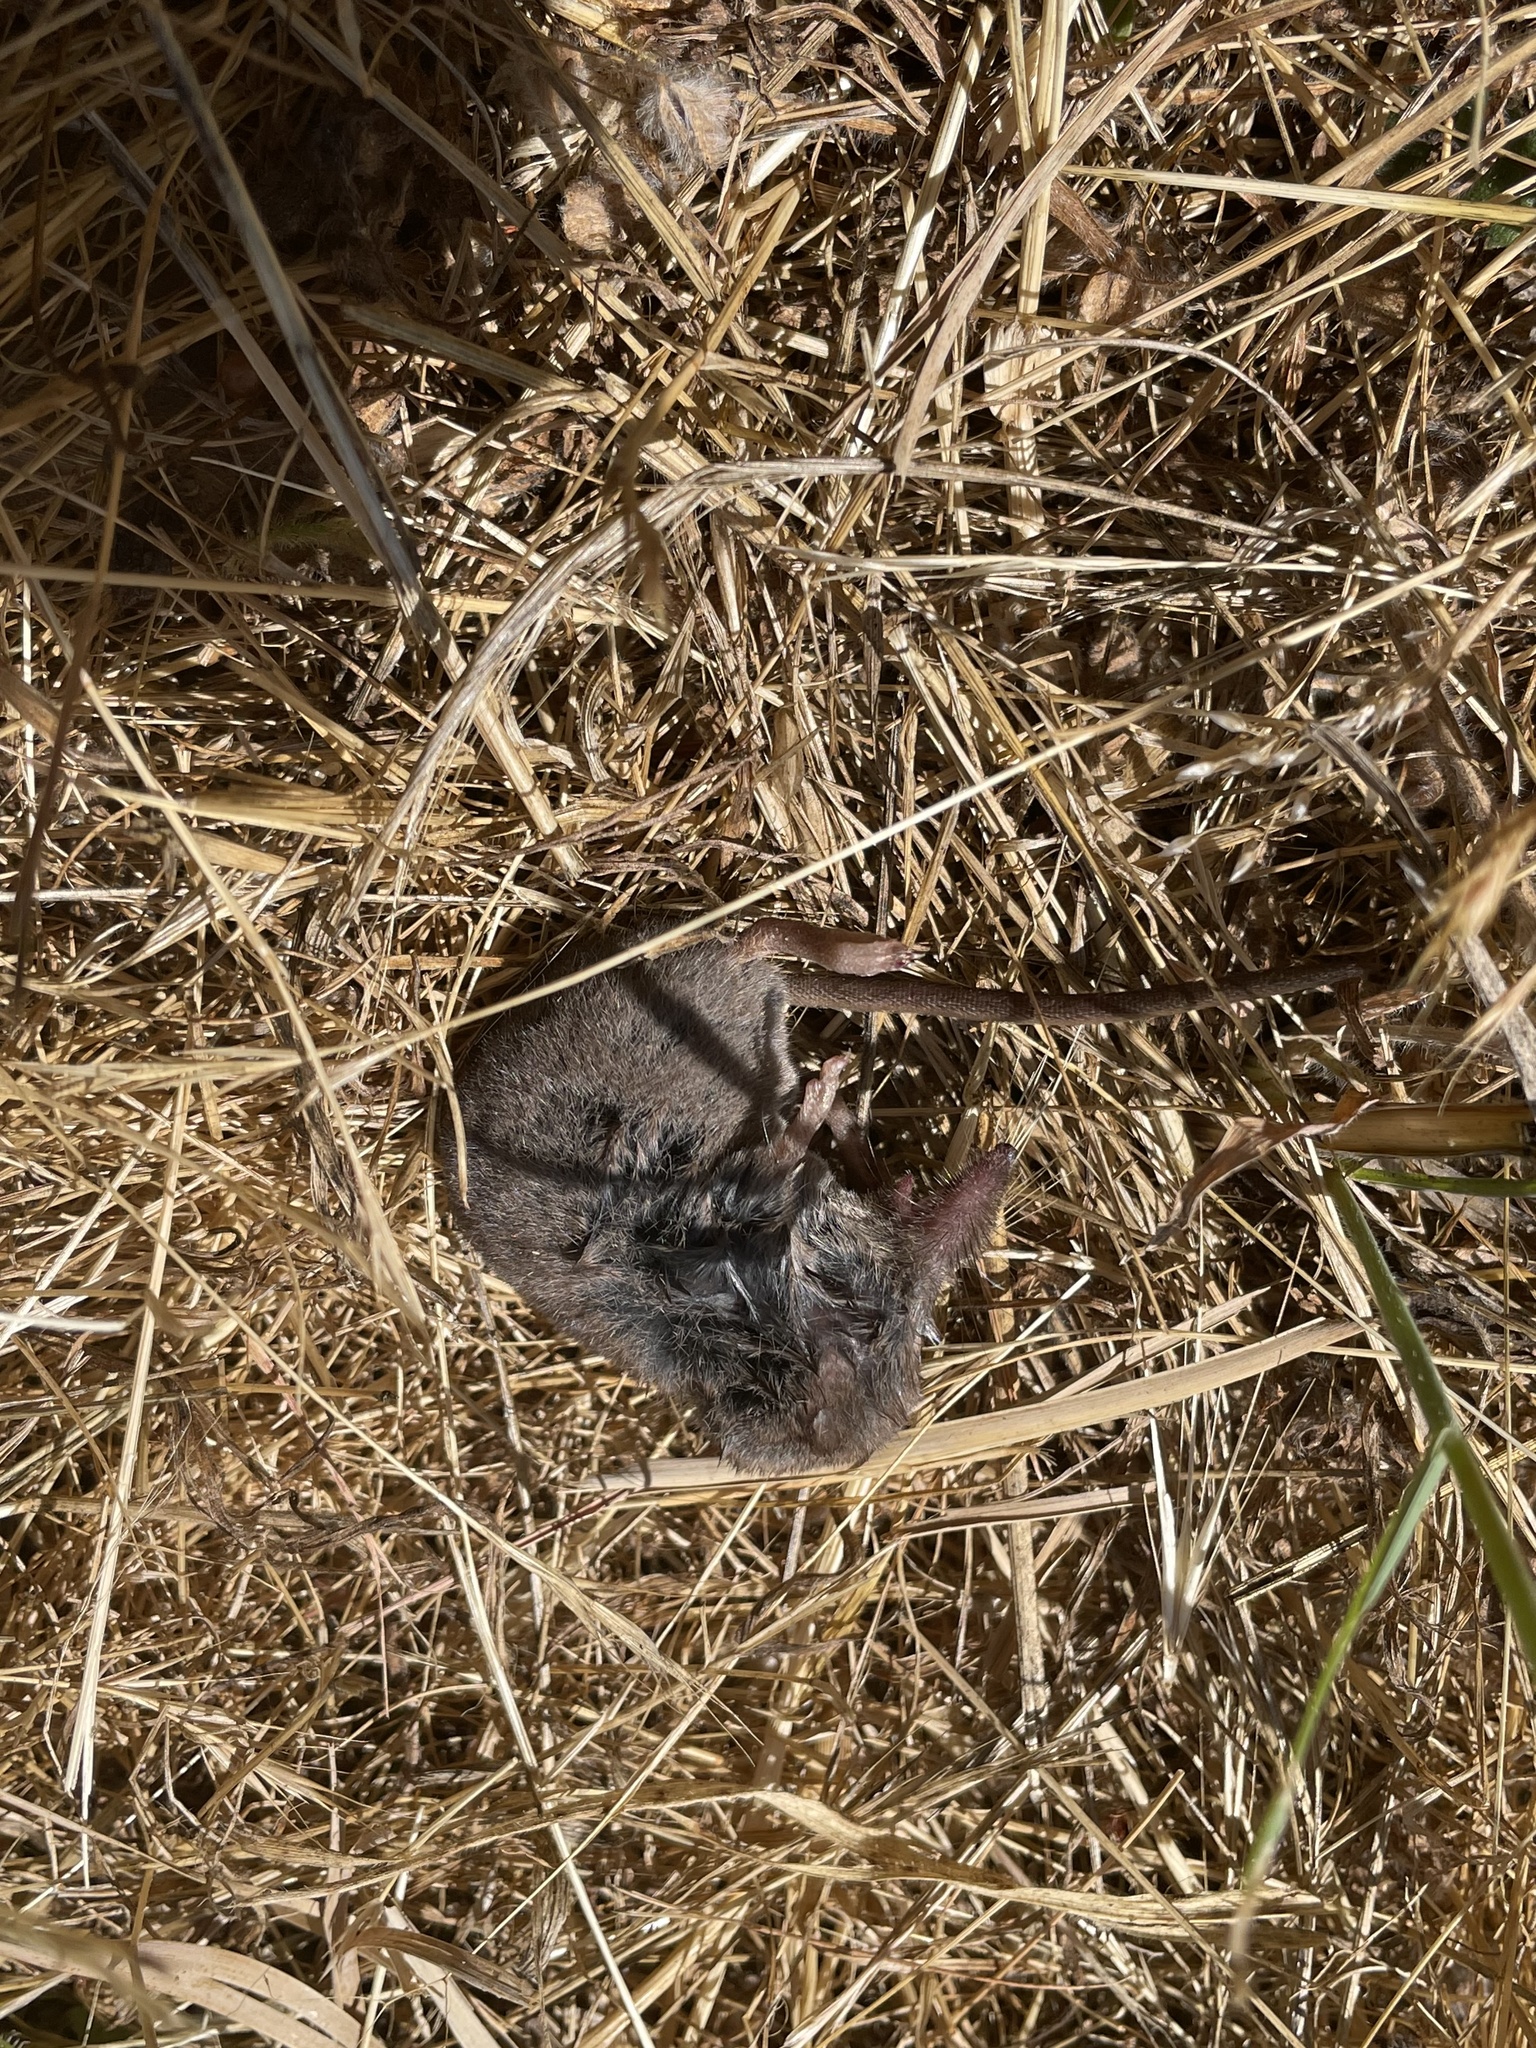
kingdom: Animalia
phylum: Chordata
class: Mammalia
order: Soricomorpha
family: Soricidae
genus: Sorex
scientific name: Sorex vagrans
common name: Vagrant shrew
